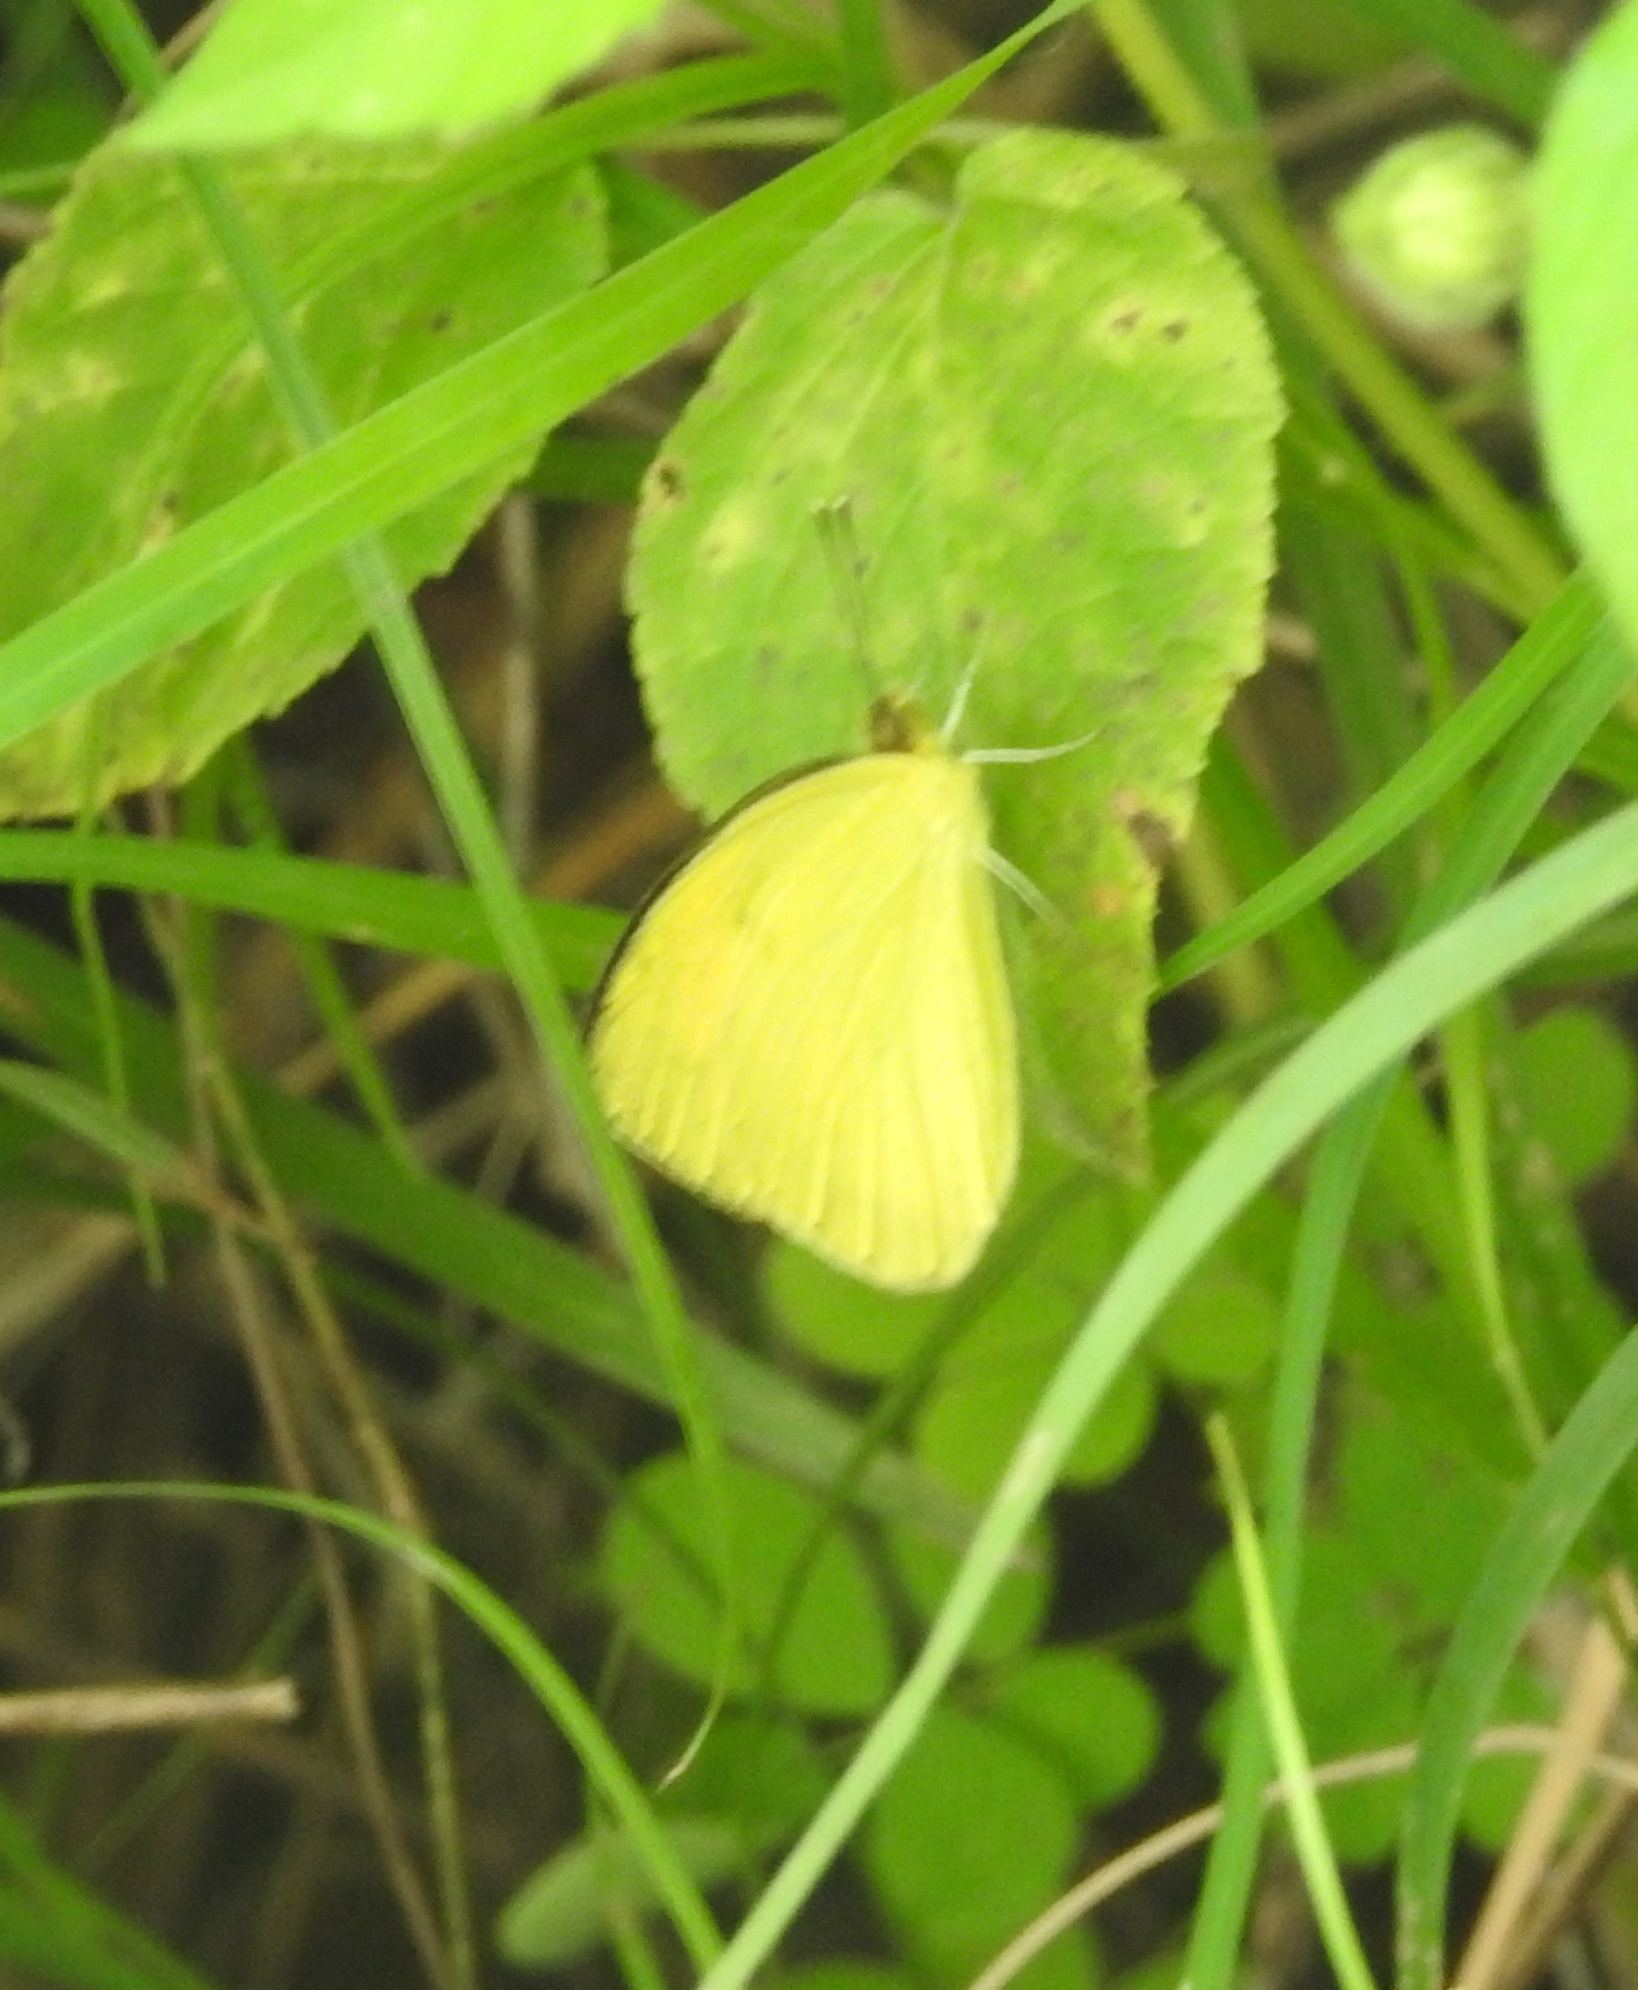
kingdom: Animalia
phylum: Arthropoda
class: Insecta
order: Lepidoptera
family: Pieridae
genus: Ixias
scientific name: Ixias pyrene
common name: Yellow orange tip
